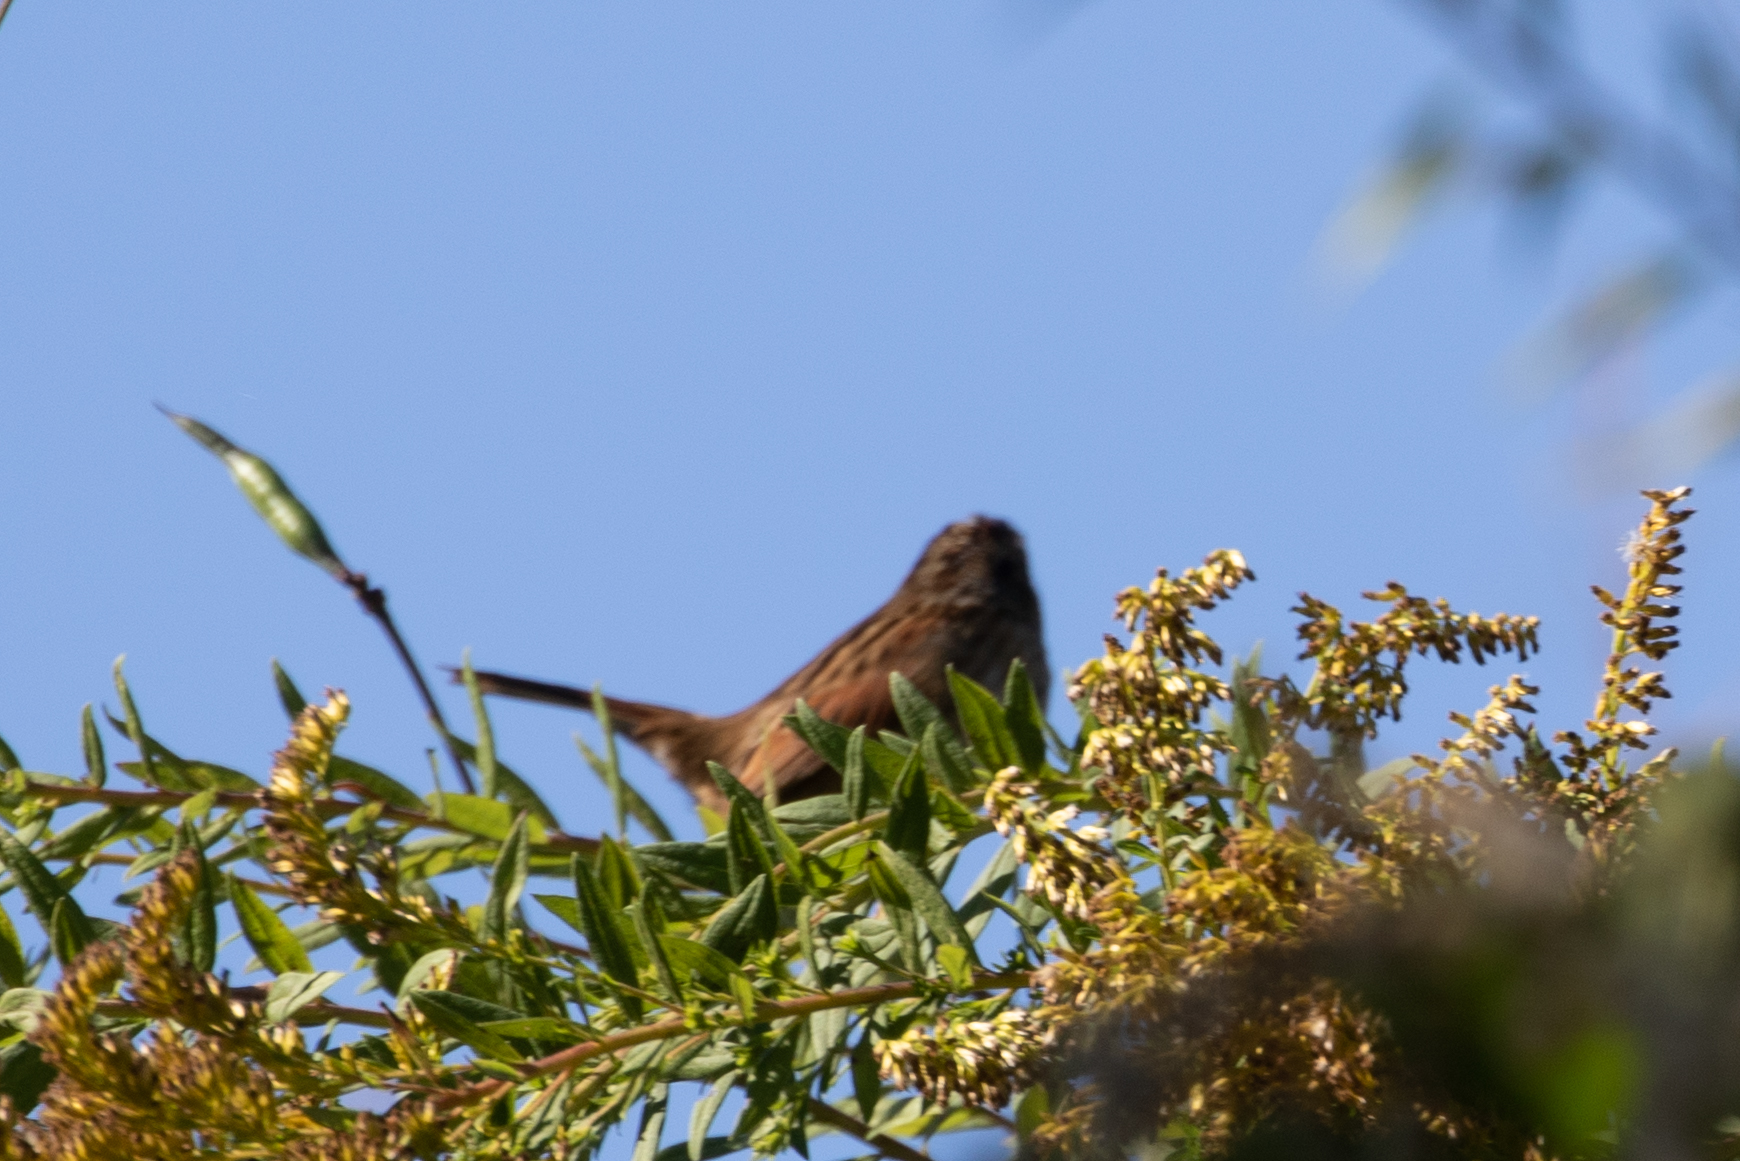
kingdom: Animalia
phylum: Chordata
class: Aves
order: Passeriformes
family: Passerellidae
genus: Melospiza
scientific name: Melospiza georgiana
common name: Swamp sparrow
